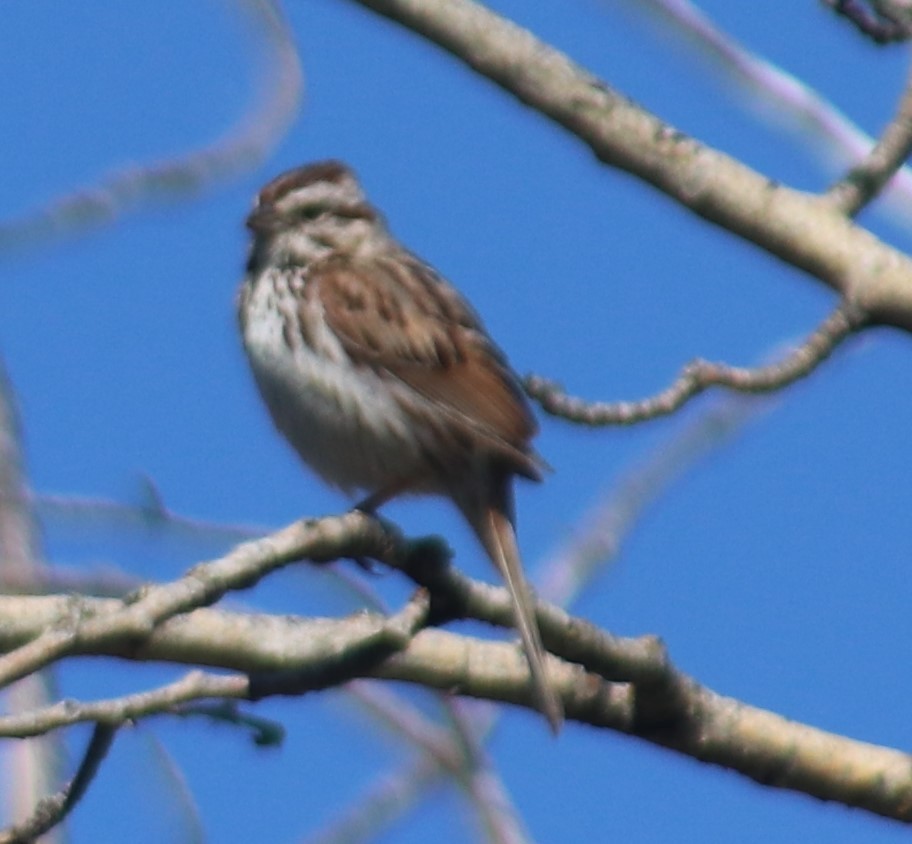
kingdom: Animalia
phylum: Chordata
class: Aves
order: Passeriformes
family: Passerellidae
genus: Melospiza
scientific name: Melospiza melodia
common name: Song sparrow
